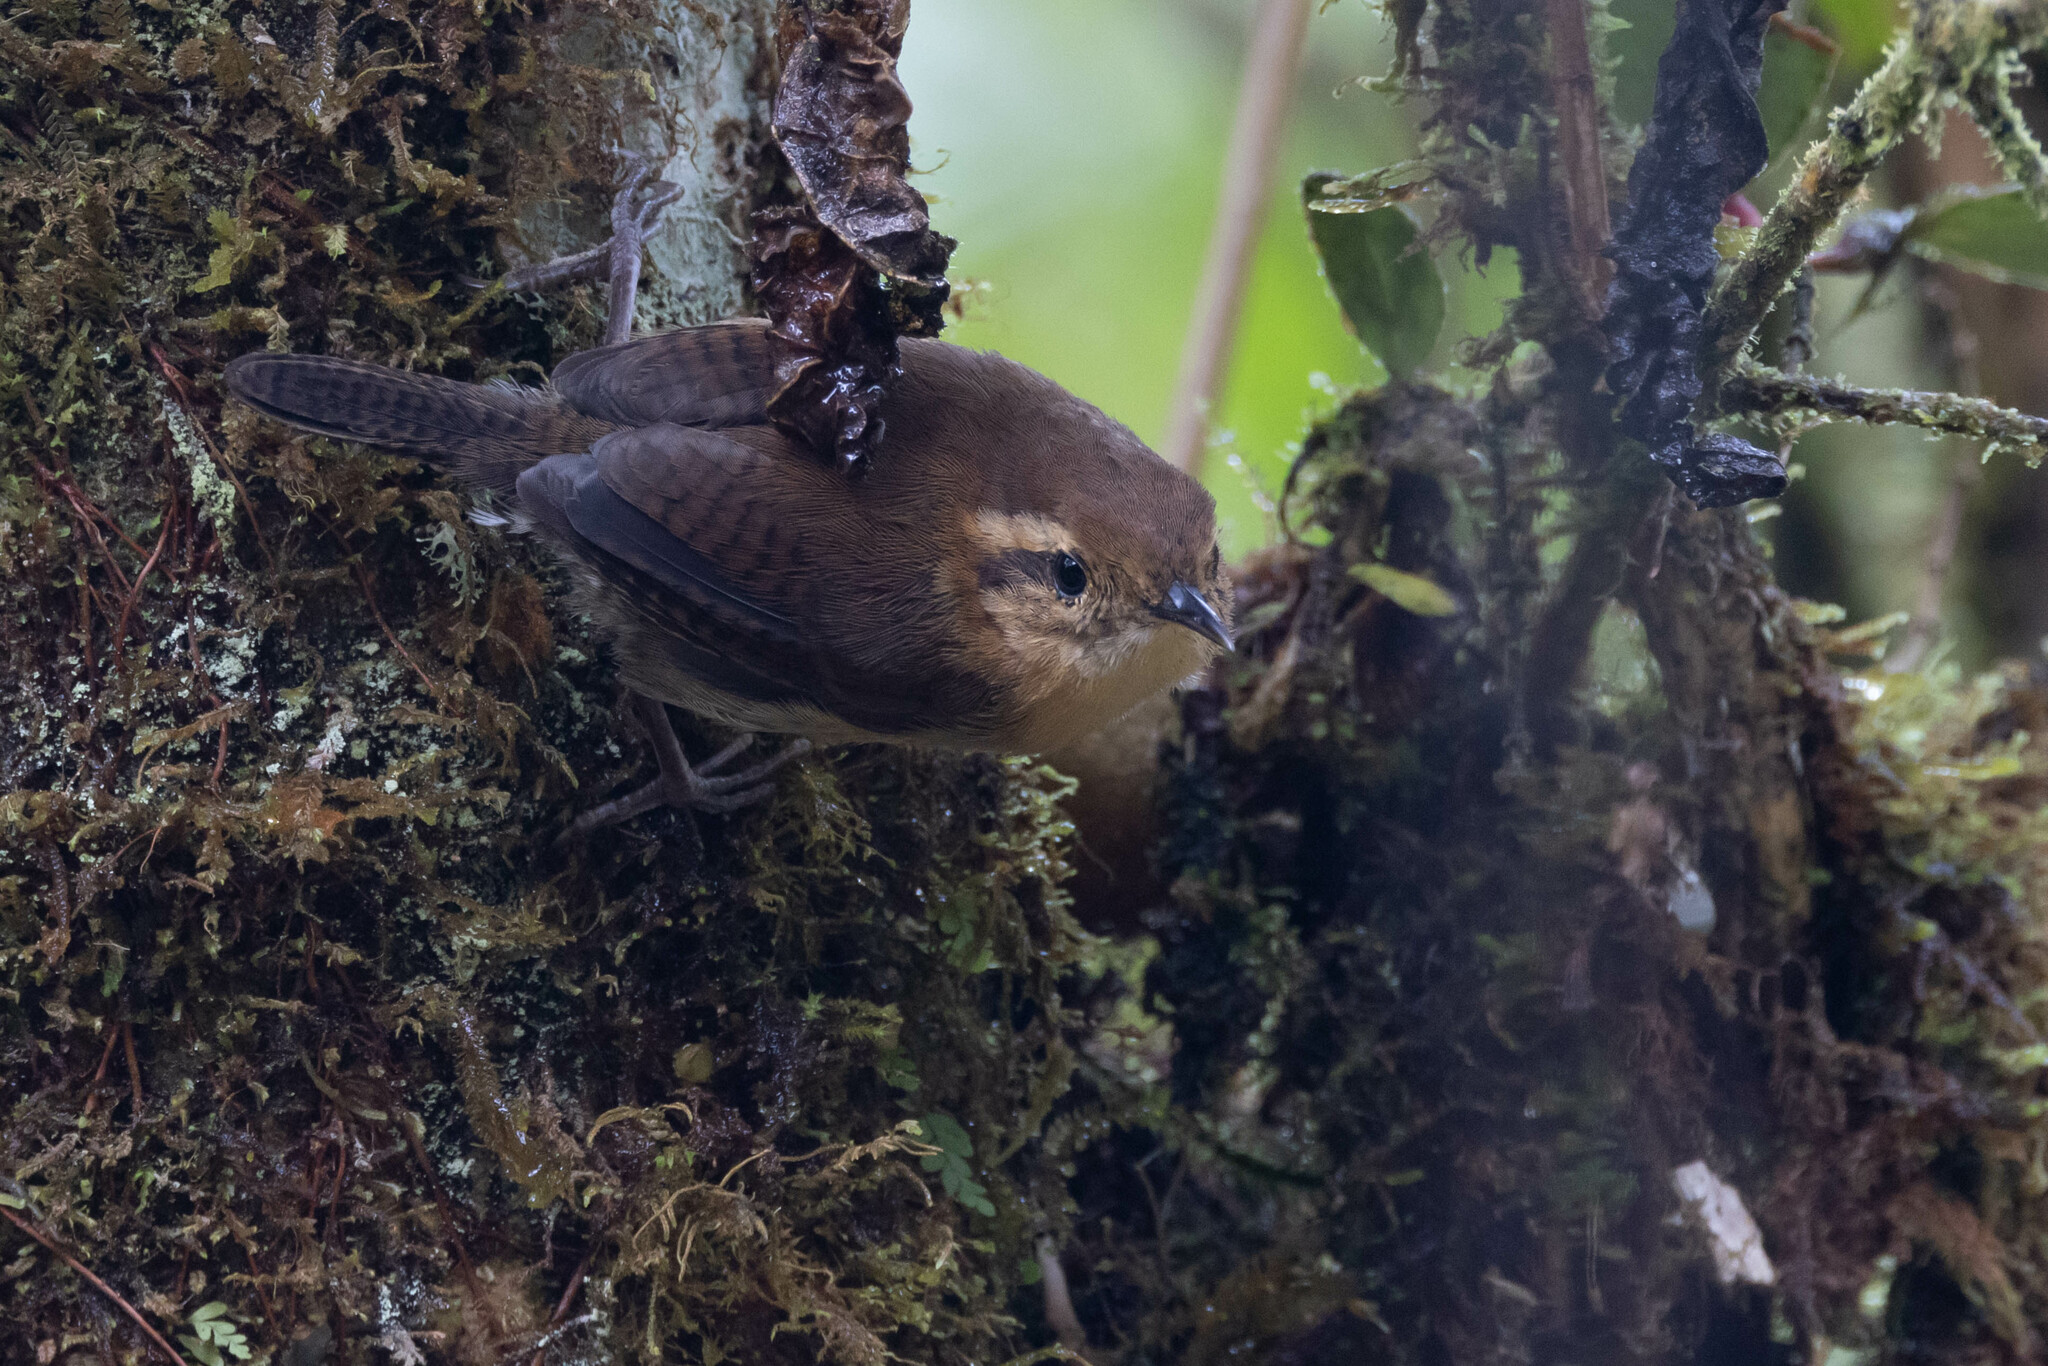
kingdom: Animalia
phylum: Chordata
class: Aves
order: Passeriformes
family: Troglodytidae
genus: Troglodytes
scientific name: Troglodytes solstitialis
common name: Mountain wren
